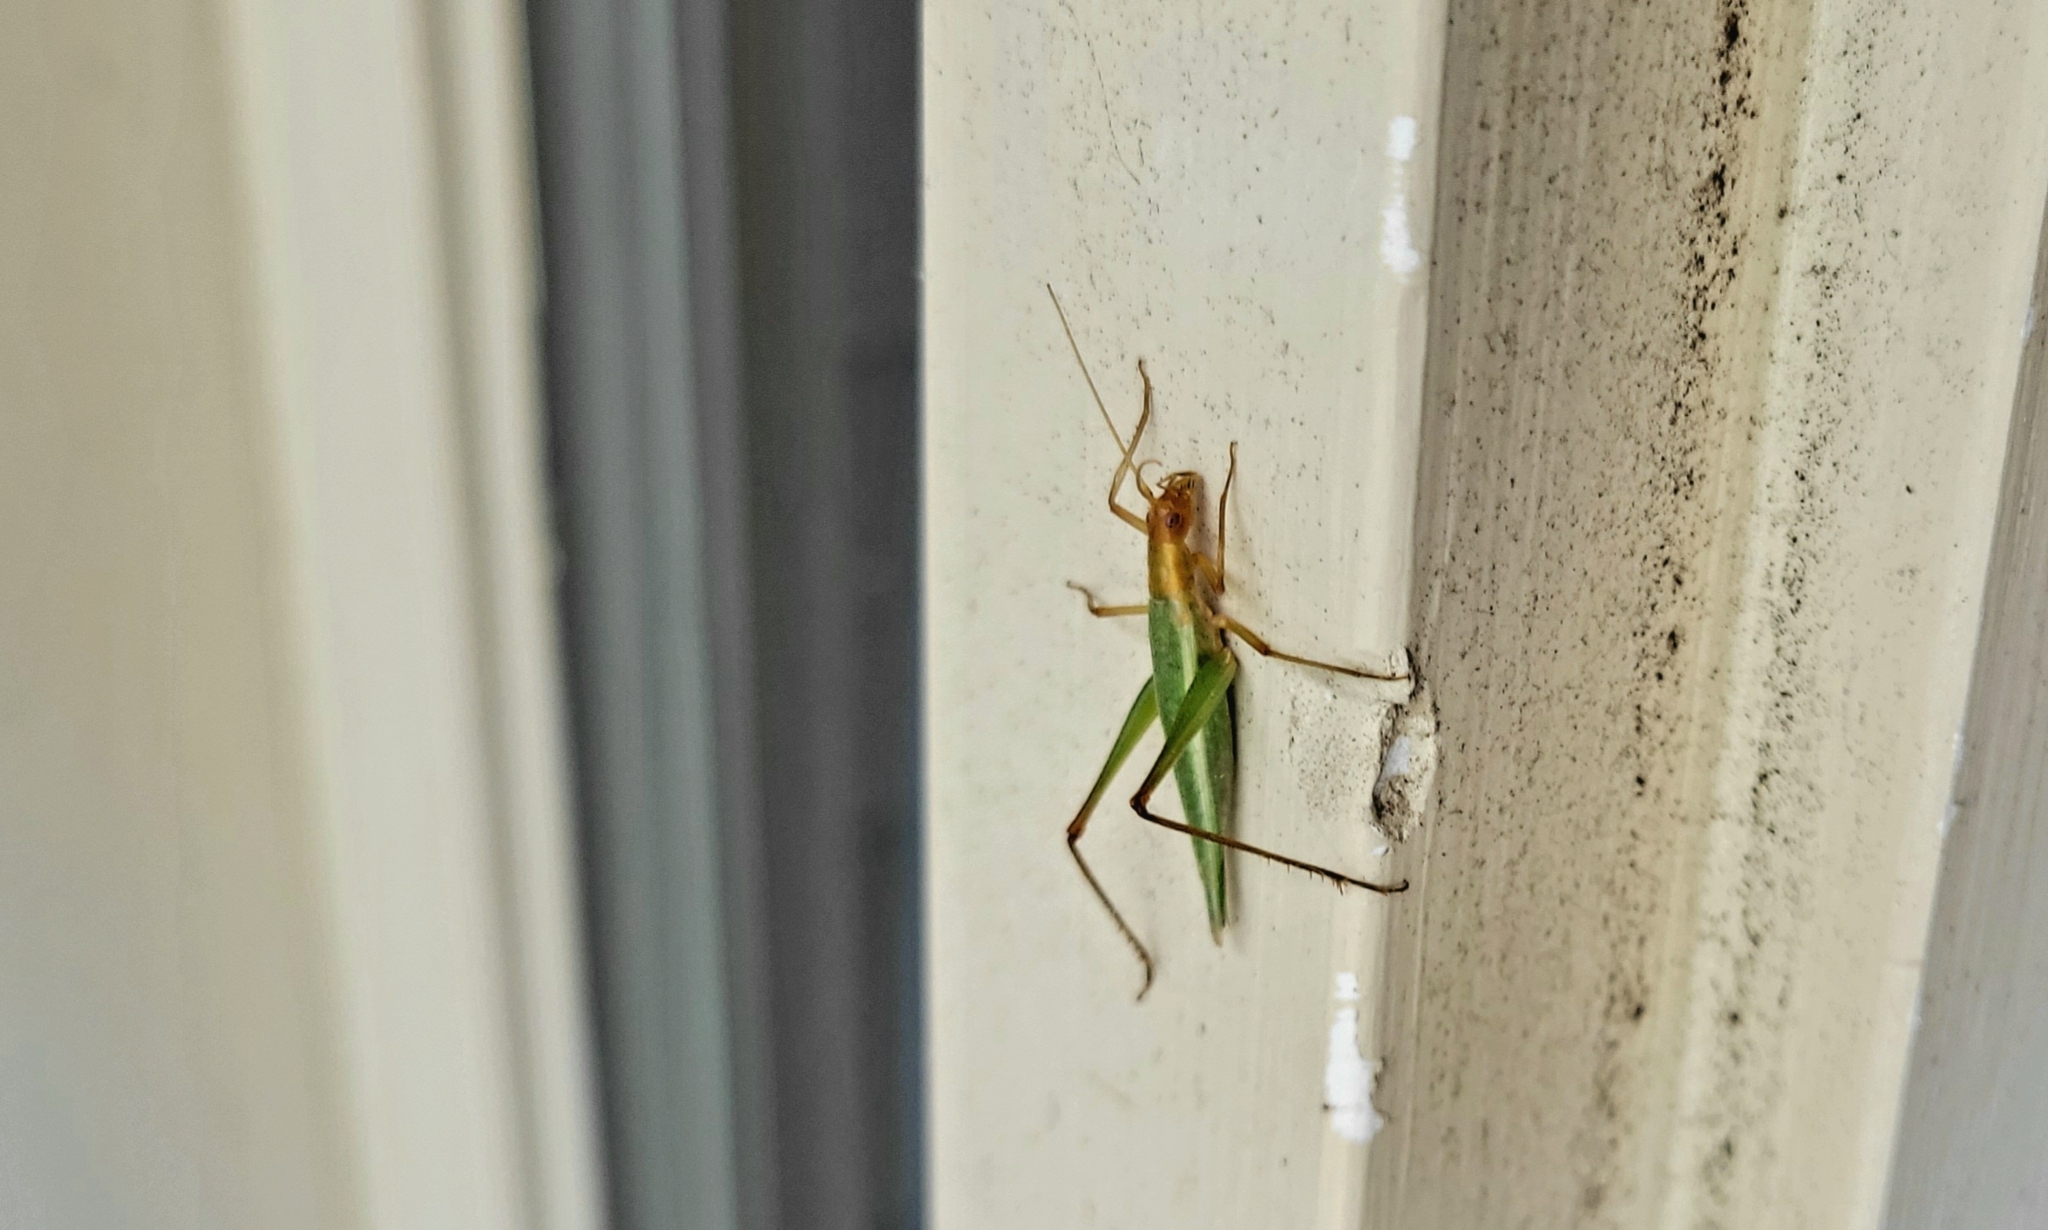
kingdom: Animalia
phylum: Arthropoda
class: Insecta
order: Orthoptera
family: Gryllidae
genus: Oecanthus
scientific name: Oecanthus pini
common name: Pine tree cricket
